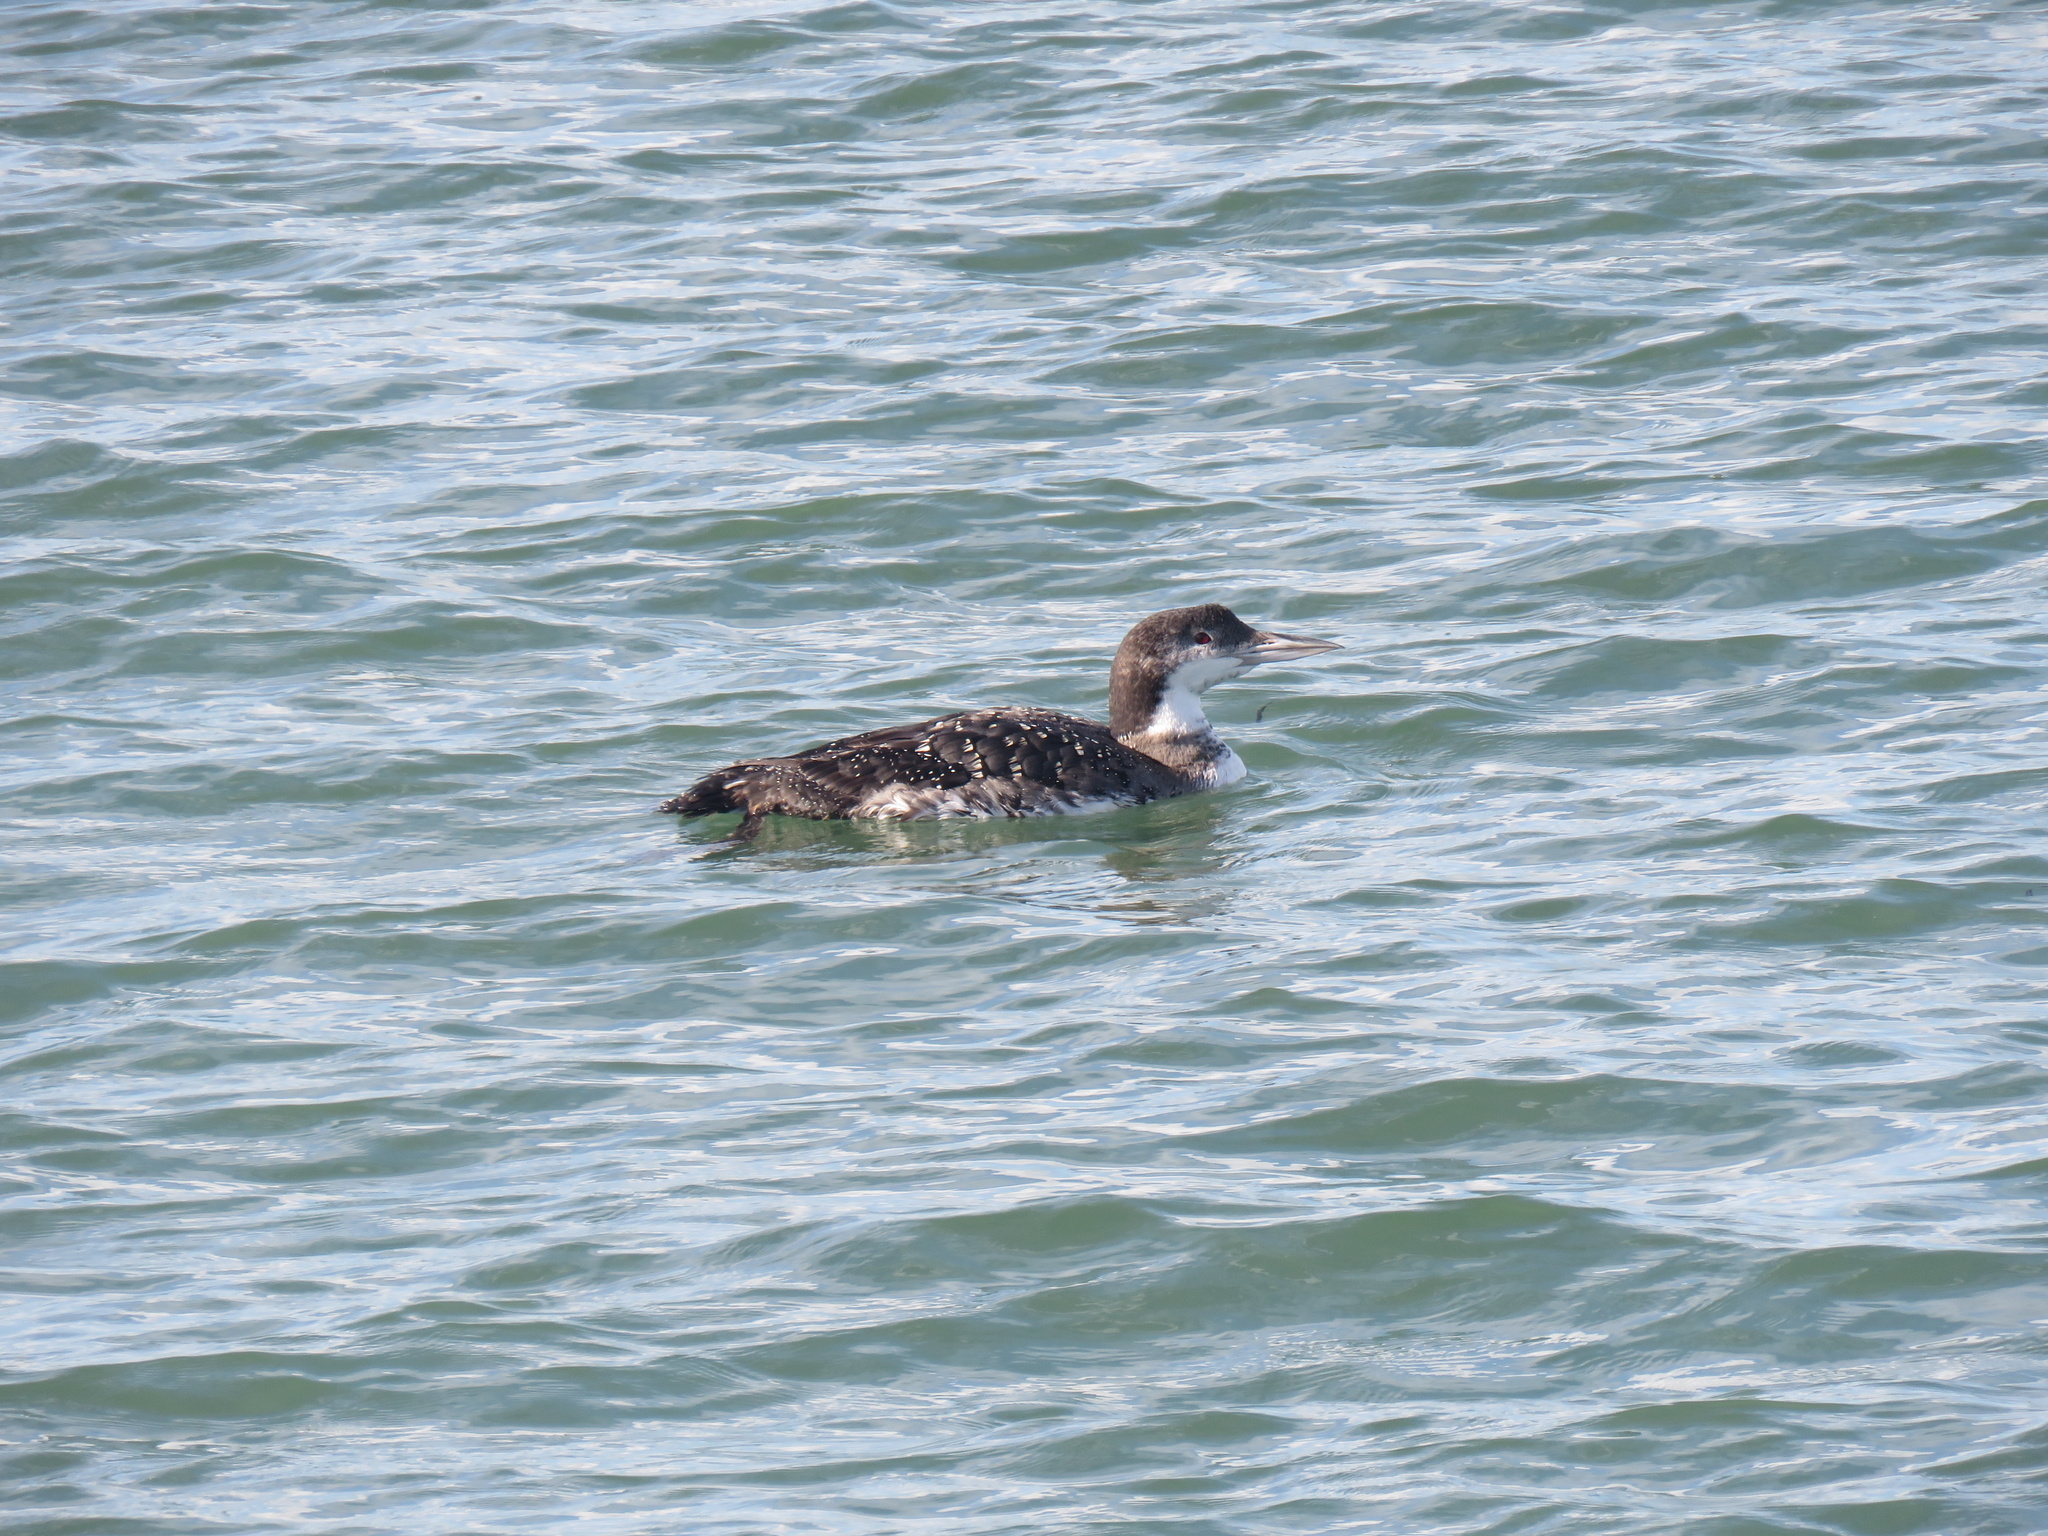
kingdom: Animalia
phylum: Chordata
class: Aves
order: Gaviiformes
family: Gaviidae
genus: Gavia
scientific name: Gavia immer
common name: Common loon
